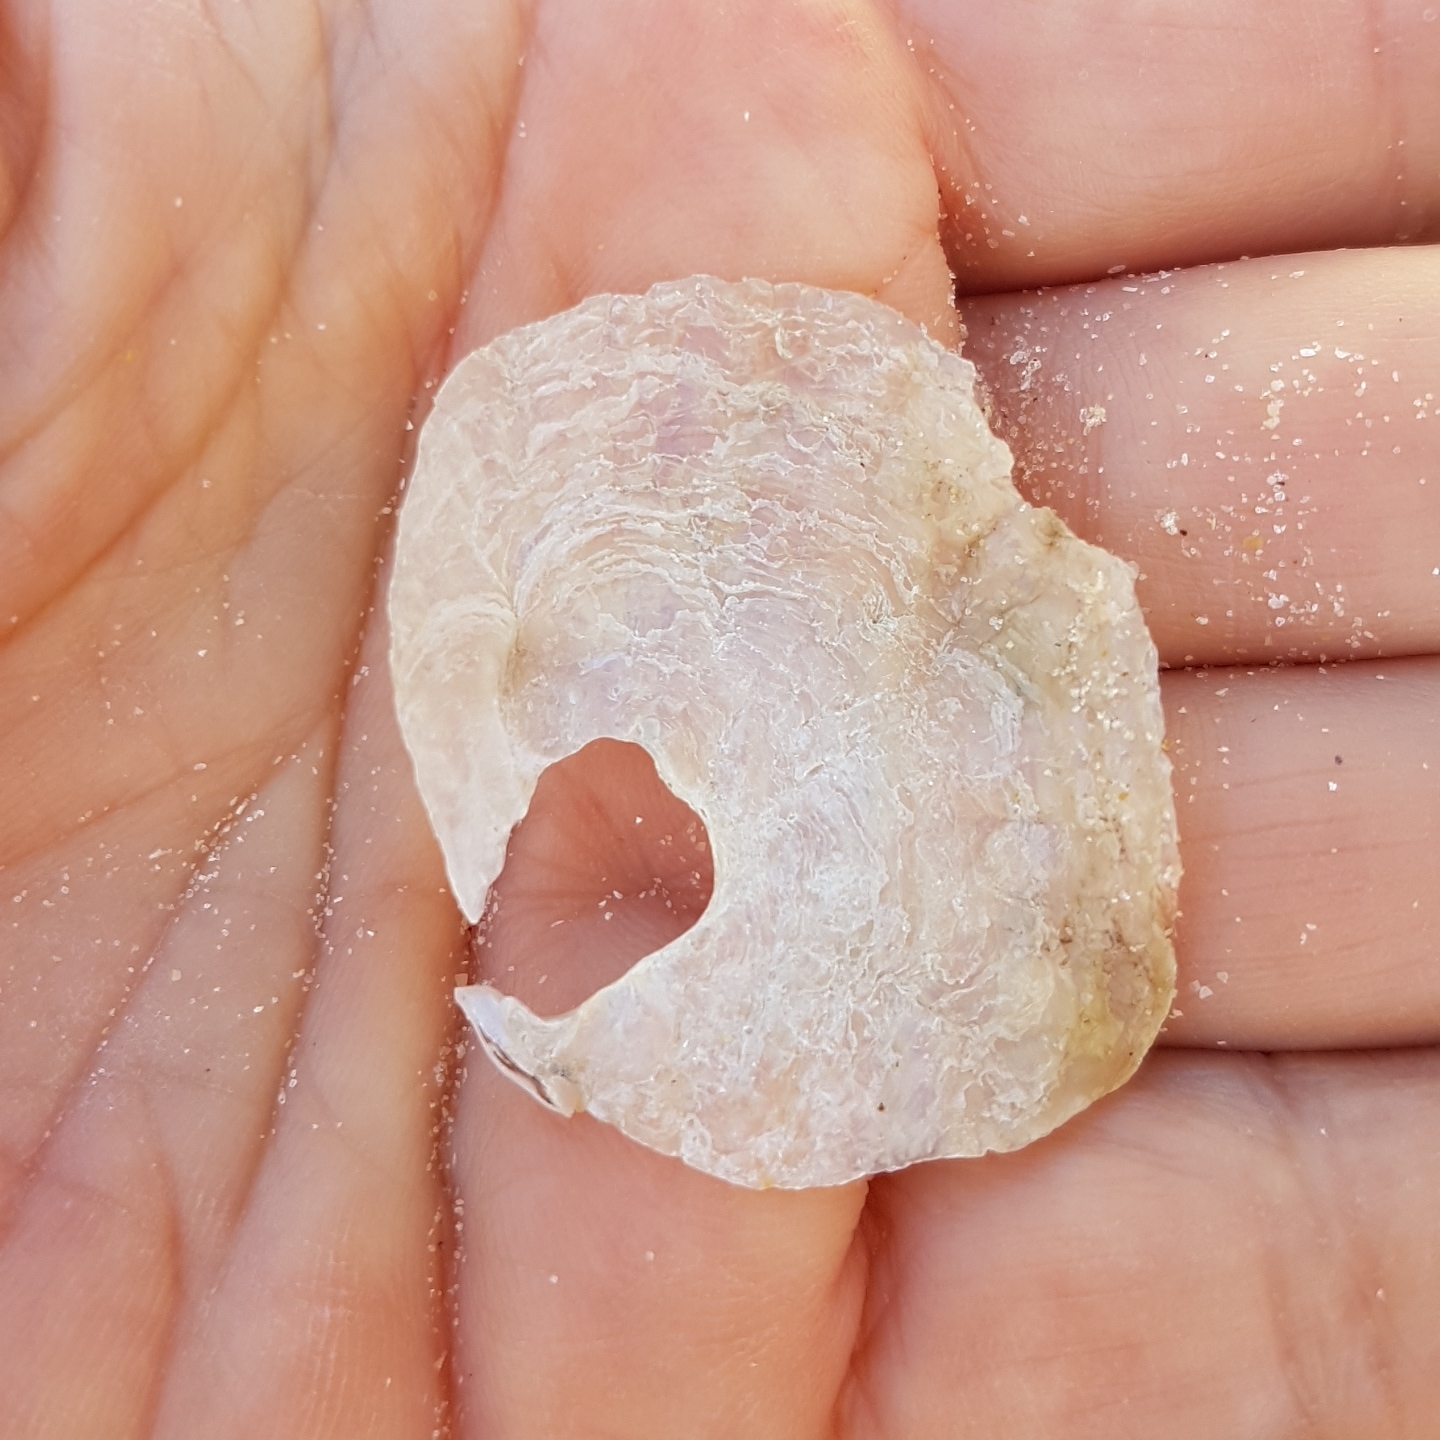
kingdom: Animalia
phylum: Mollusca
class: Bivalvia
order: Pectinida
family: Anomiidae
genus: Anomia
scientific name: Anomia ephippium
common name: Saddle oyster
